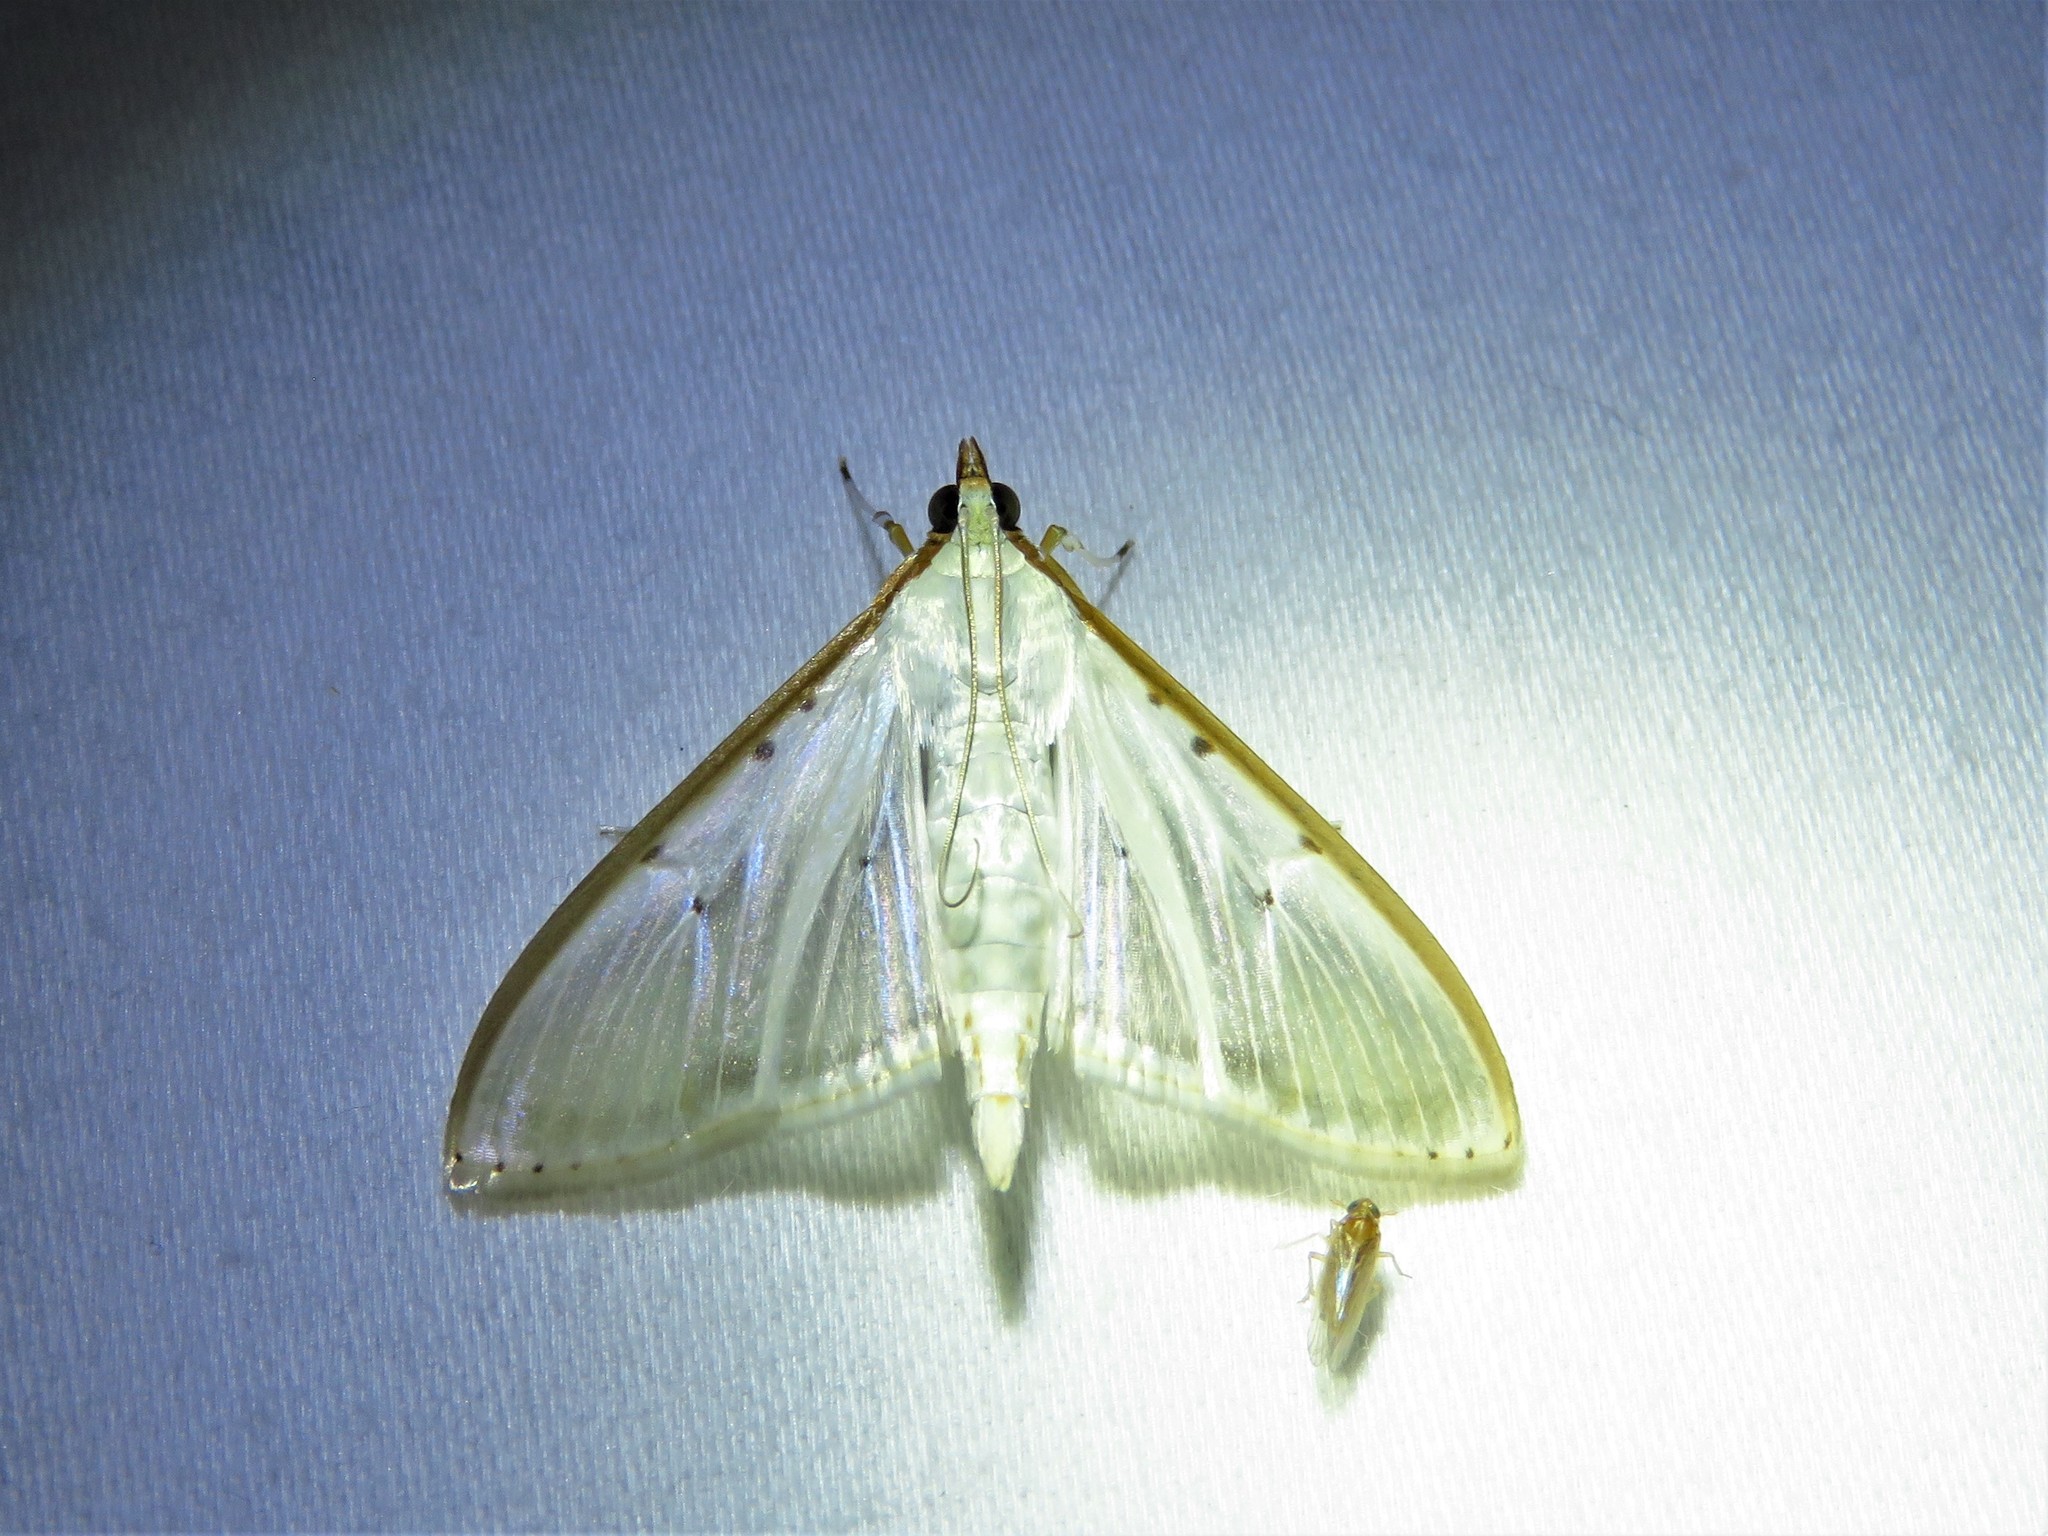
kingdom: Animalia
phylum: Arthropoda
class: Insecta
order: Lepidoptera
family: Crambidae
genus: Palpita
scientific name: Palpita quadristigmalis
